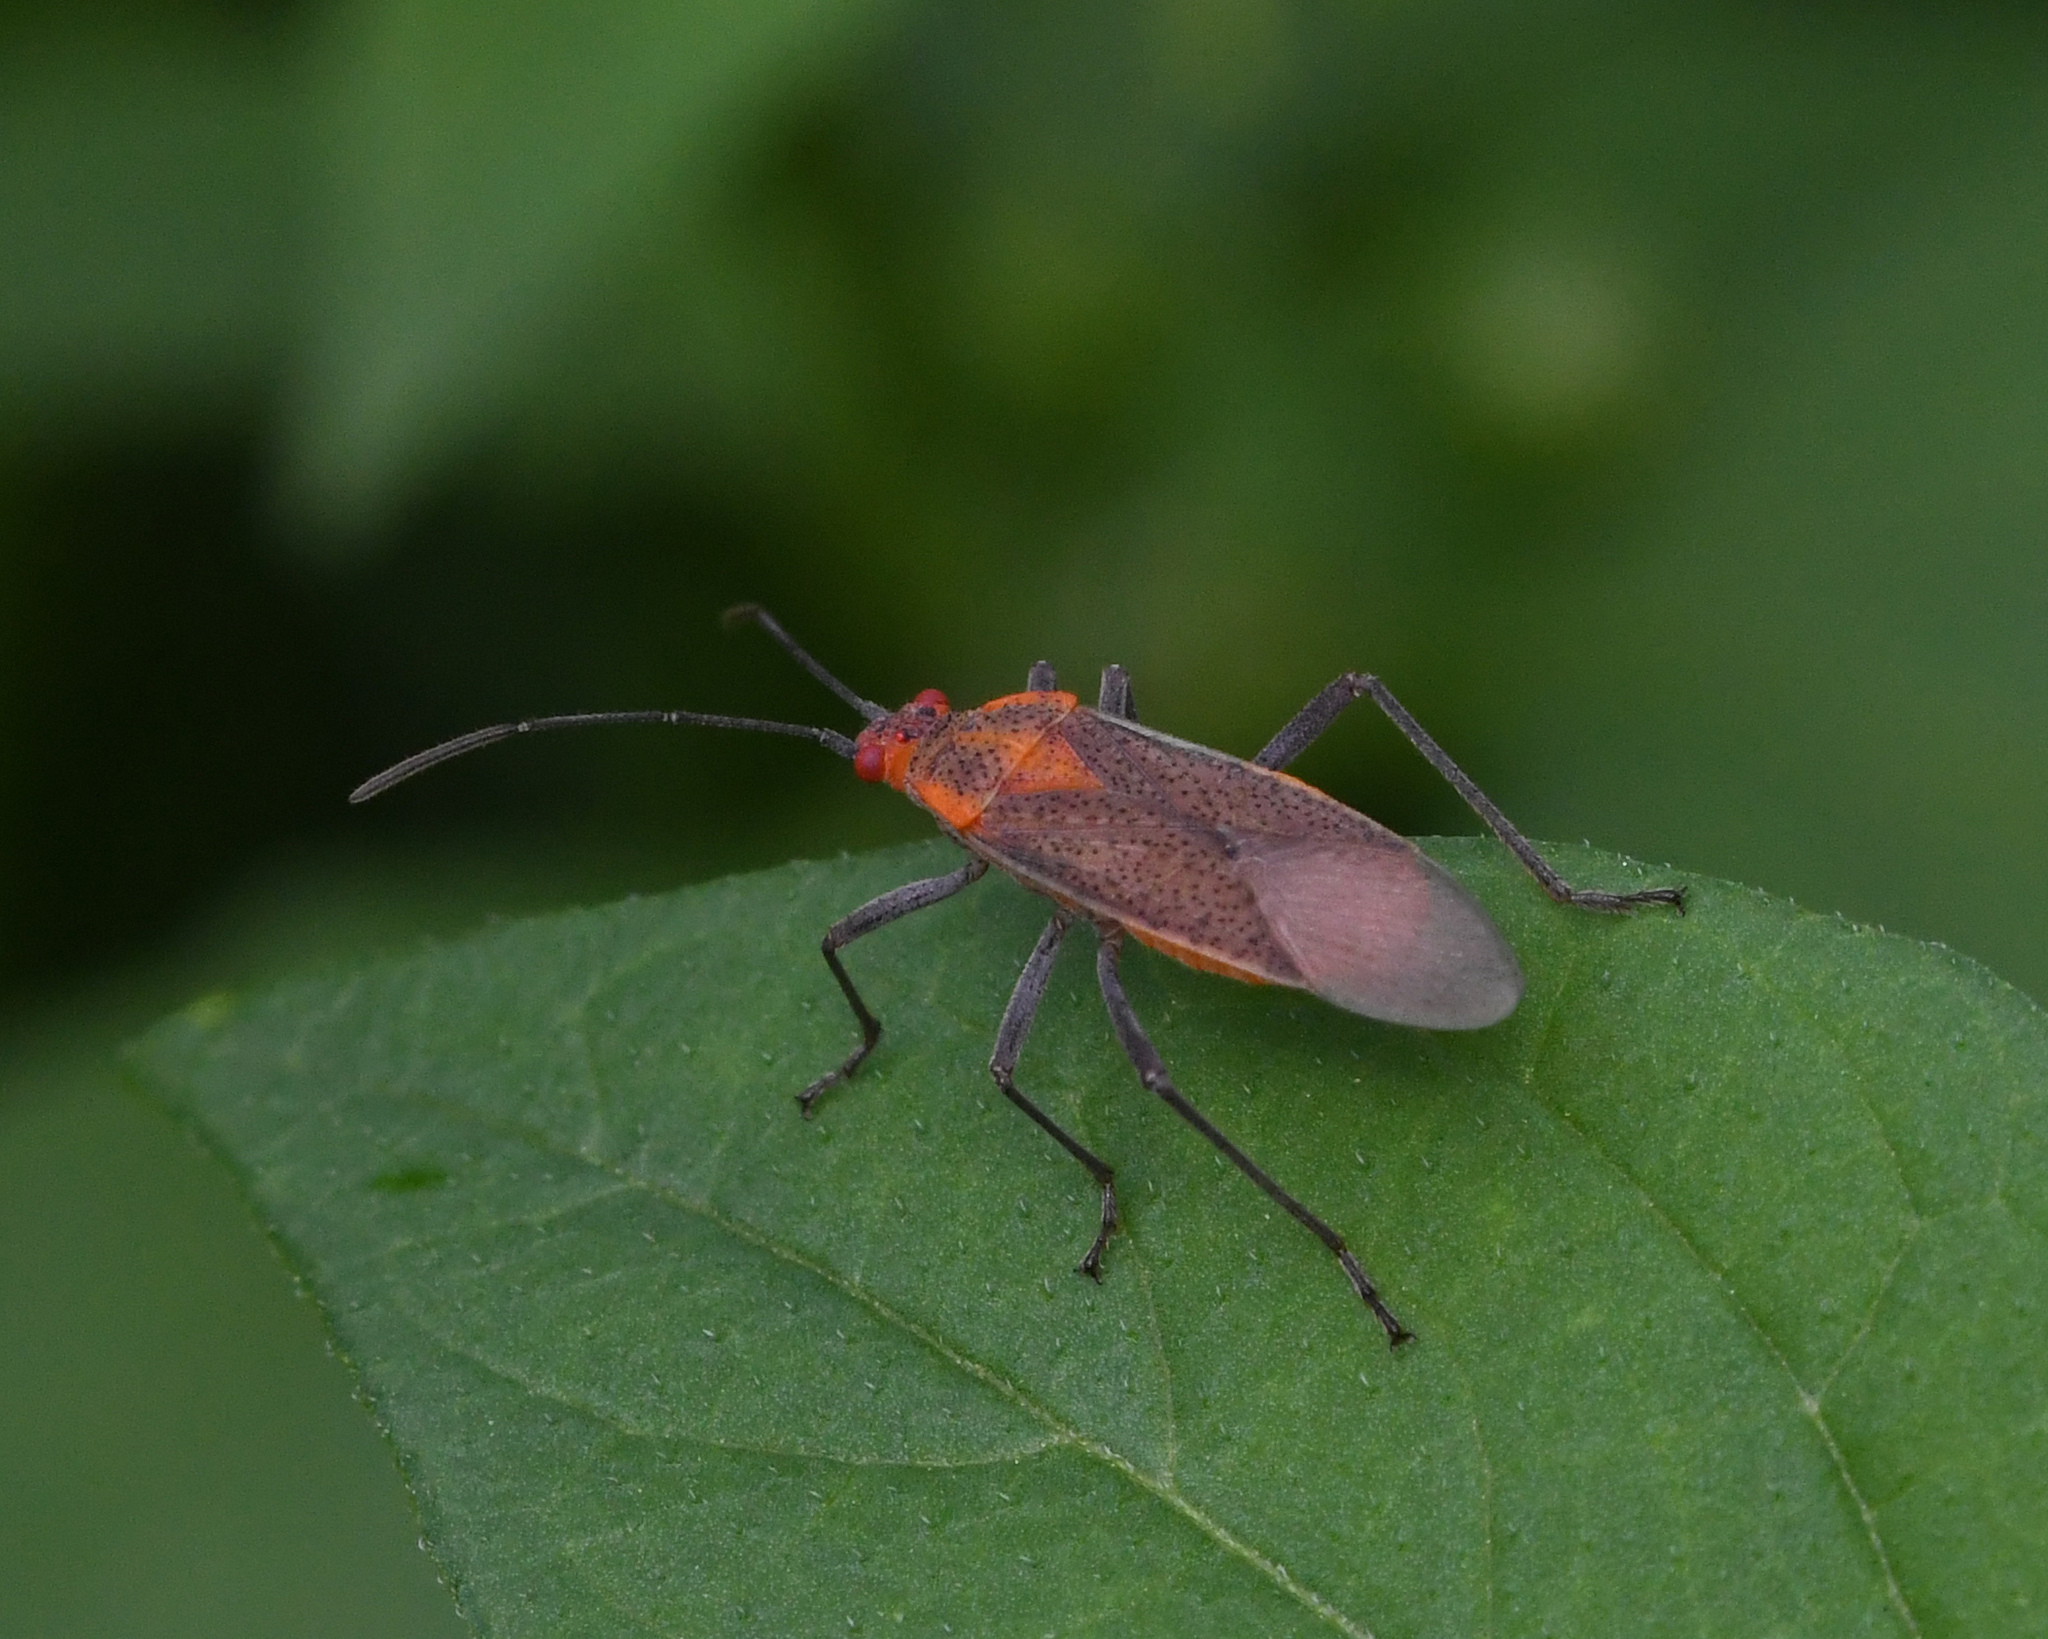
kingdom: Animalia
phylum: Arthropoda
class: Insecta
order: Hemiptera
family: Rhopalidae
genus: Jadera
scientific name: Jadera sanguinolenta
